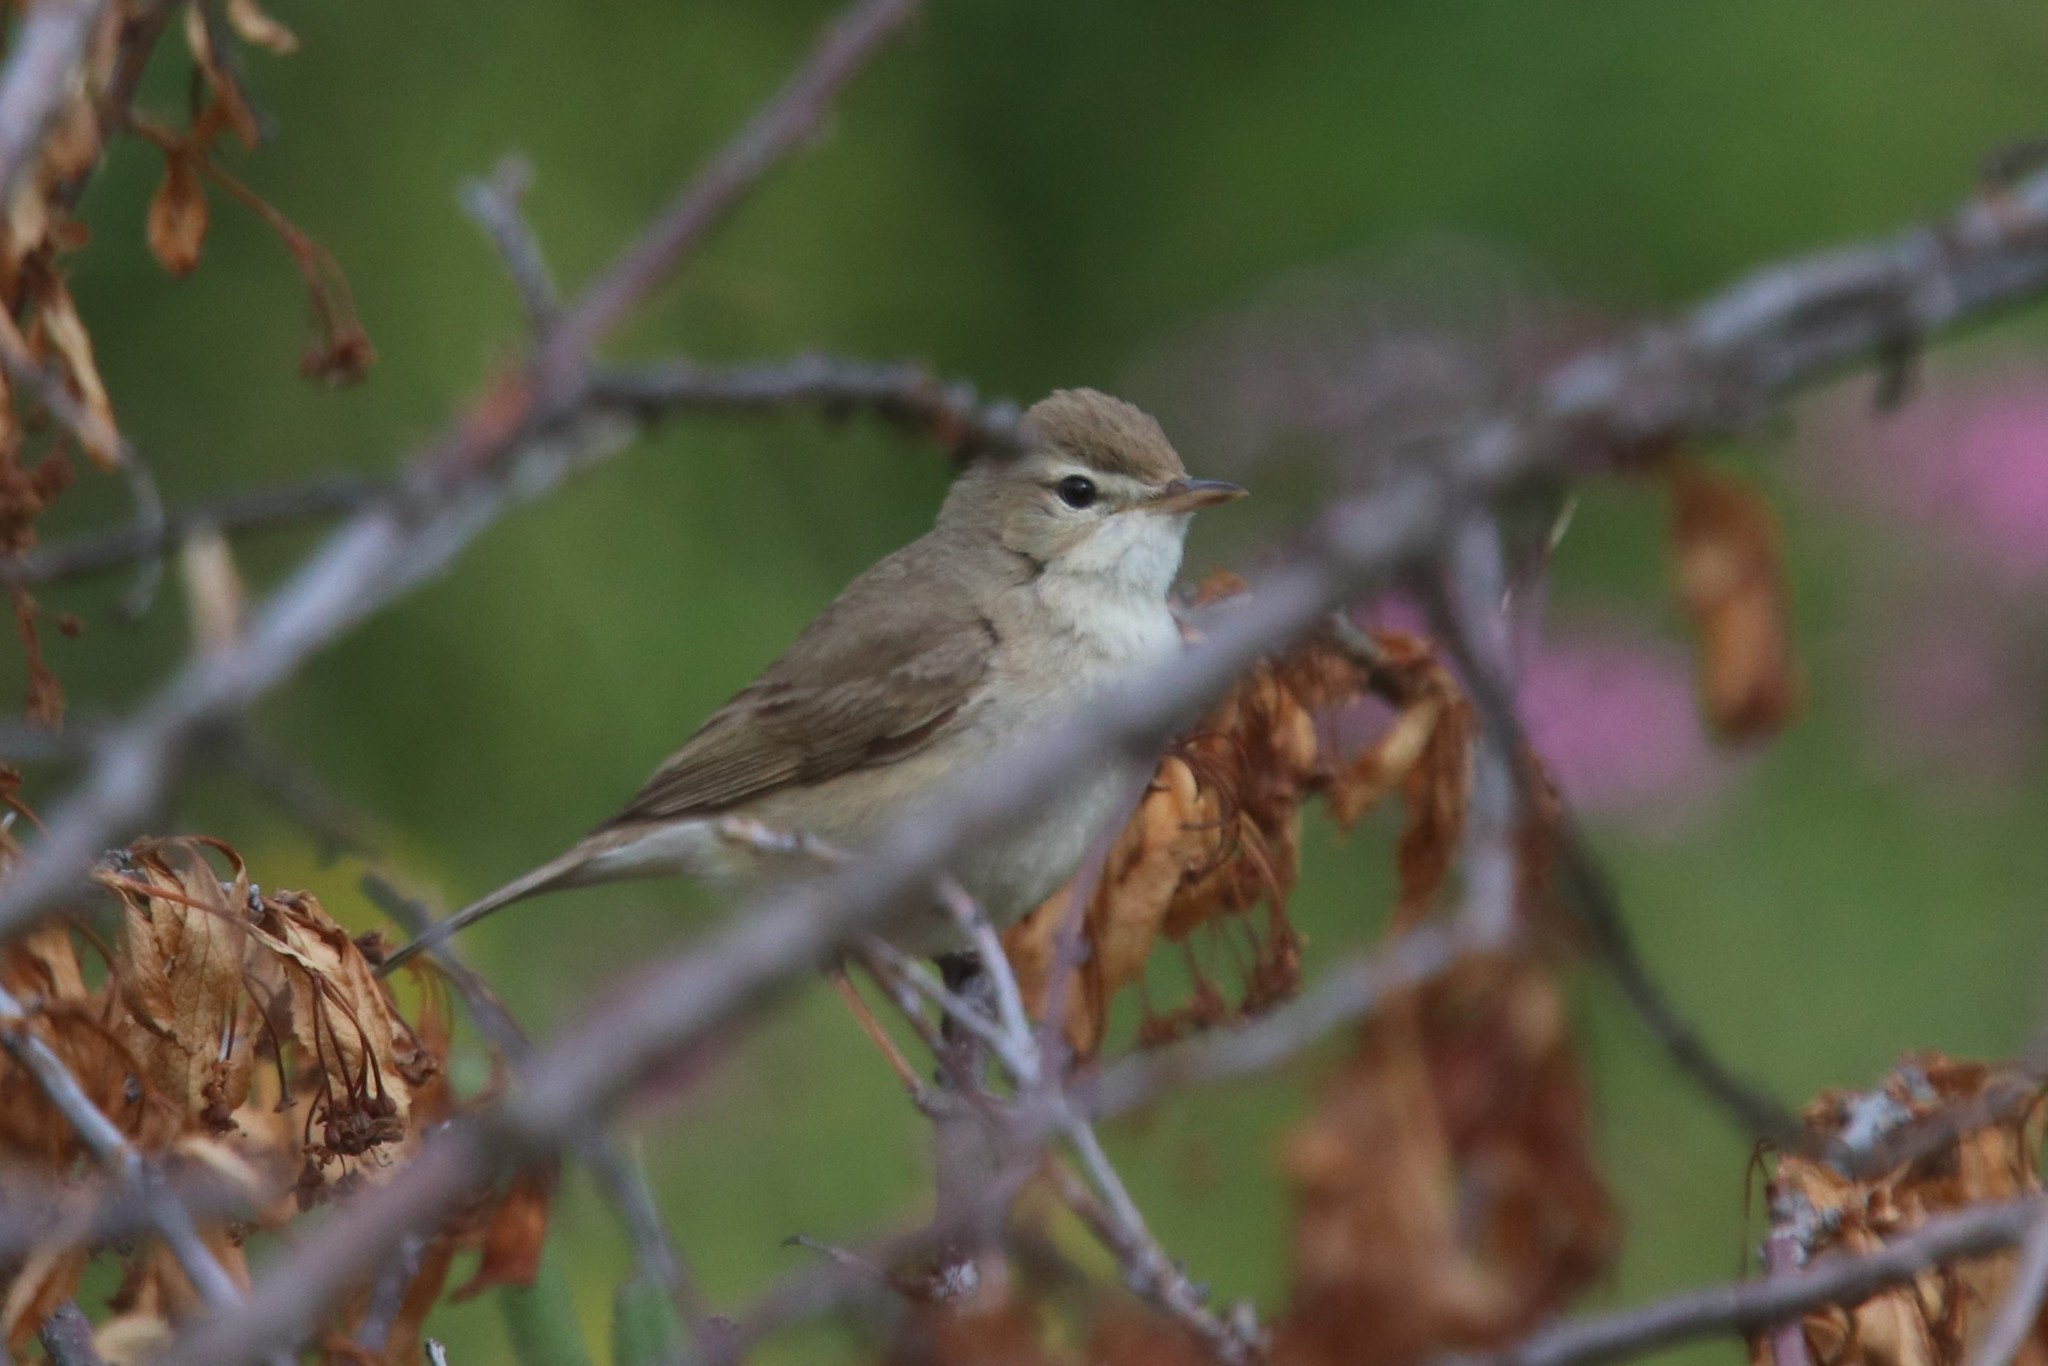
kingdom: Animalia
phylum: Chordata
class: Aves
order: Passeriformes
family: Acrocephalidae
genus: Iduna
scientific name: Iduna caligata
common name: Booted warbler
